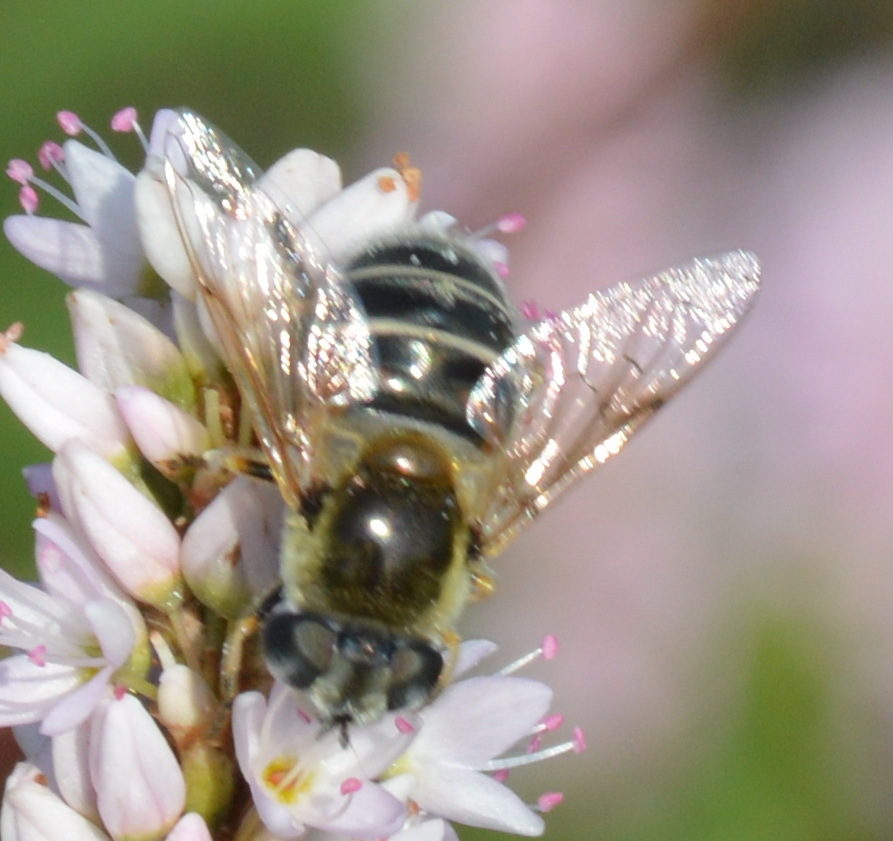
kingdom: Animalia
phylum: Arthropoda
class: Insecta
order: Diptera
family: Syrphidae
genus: Eristalis
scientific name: Eristalis stipator
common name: Yellow-shouldered drone fly
